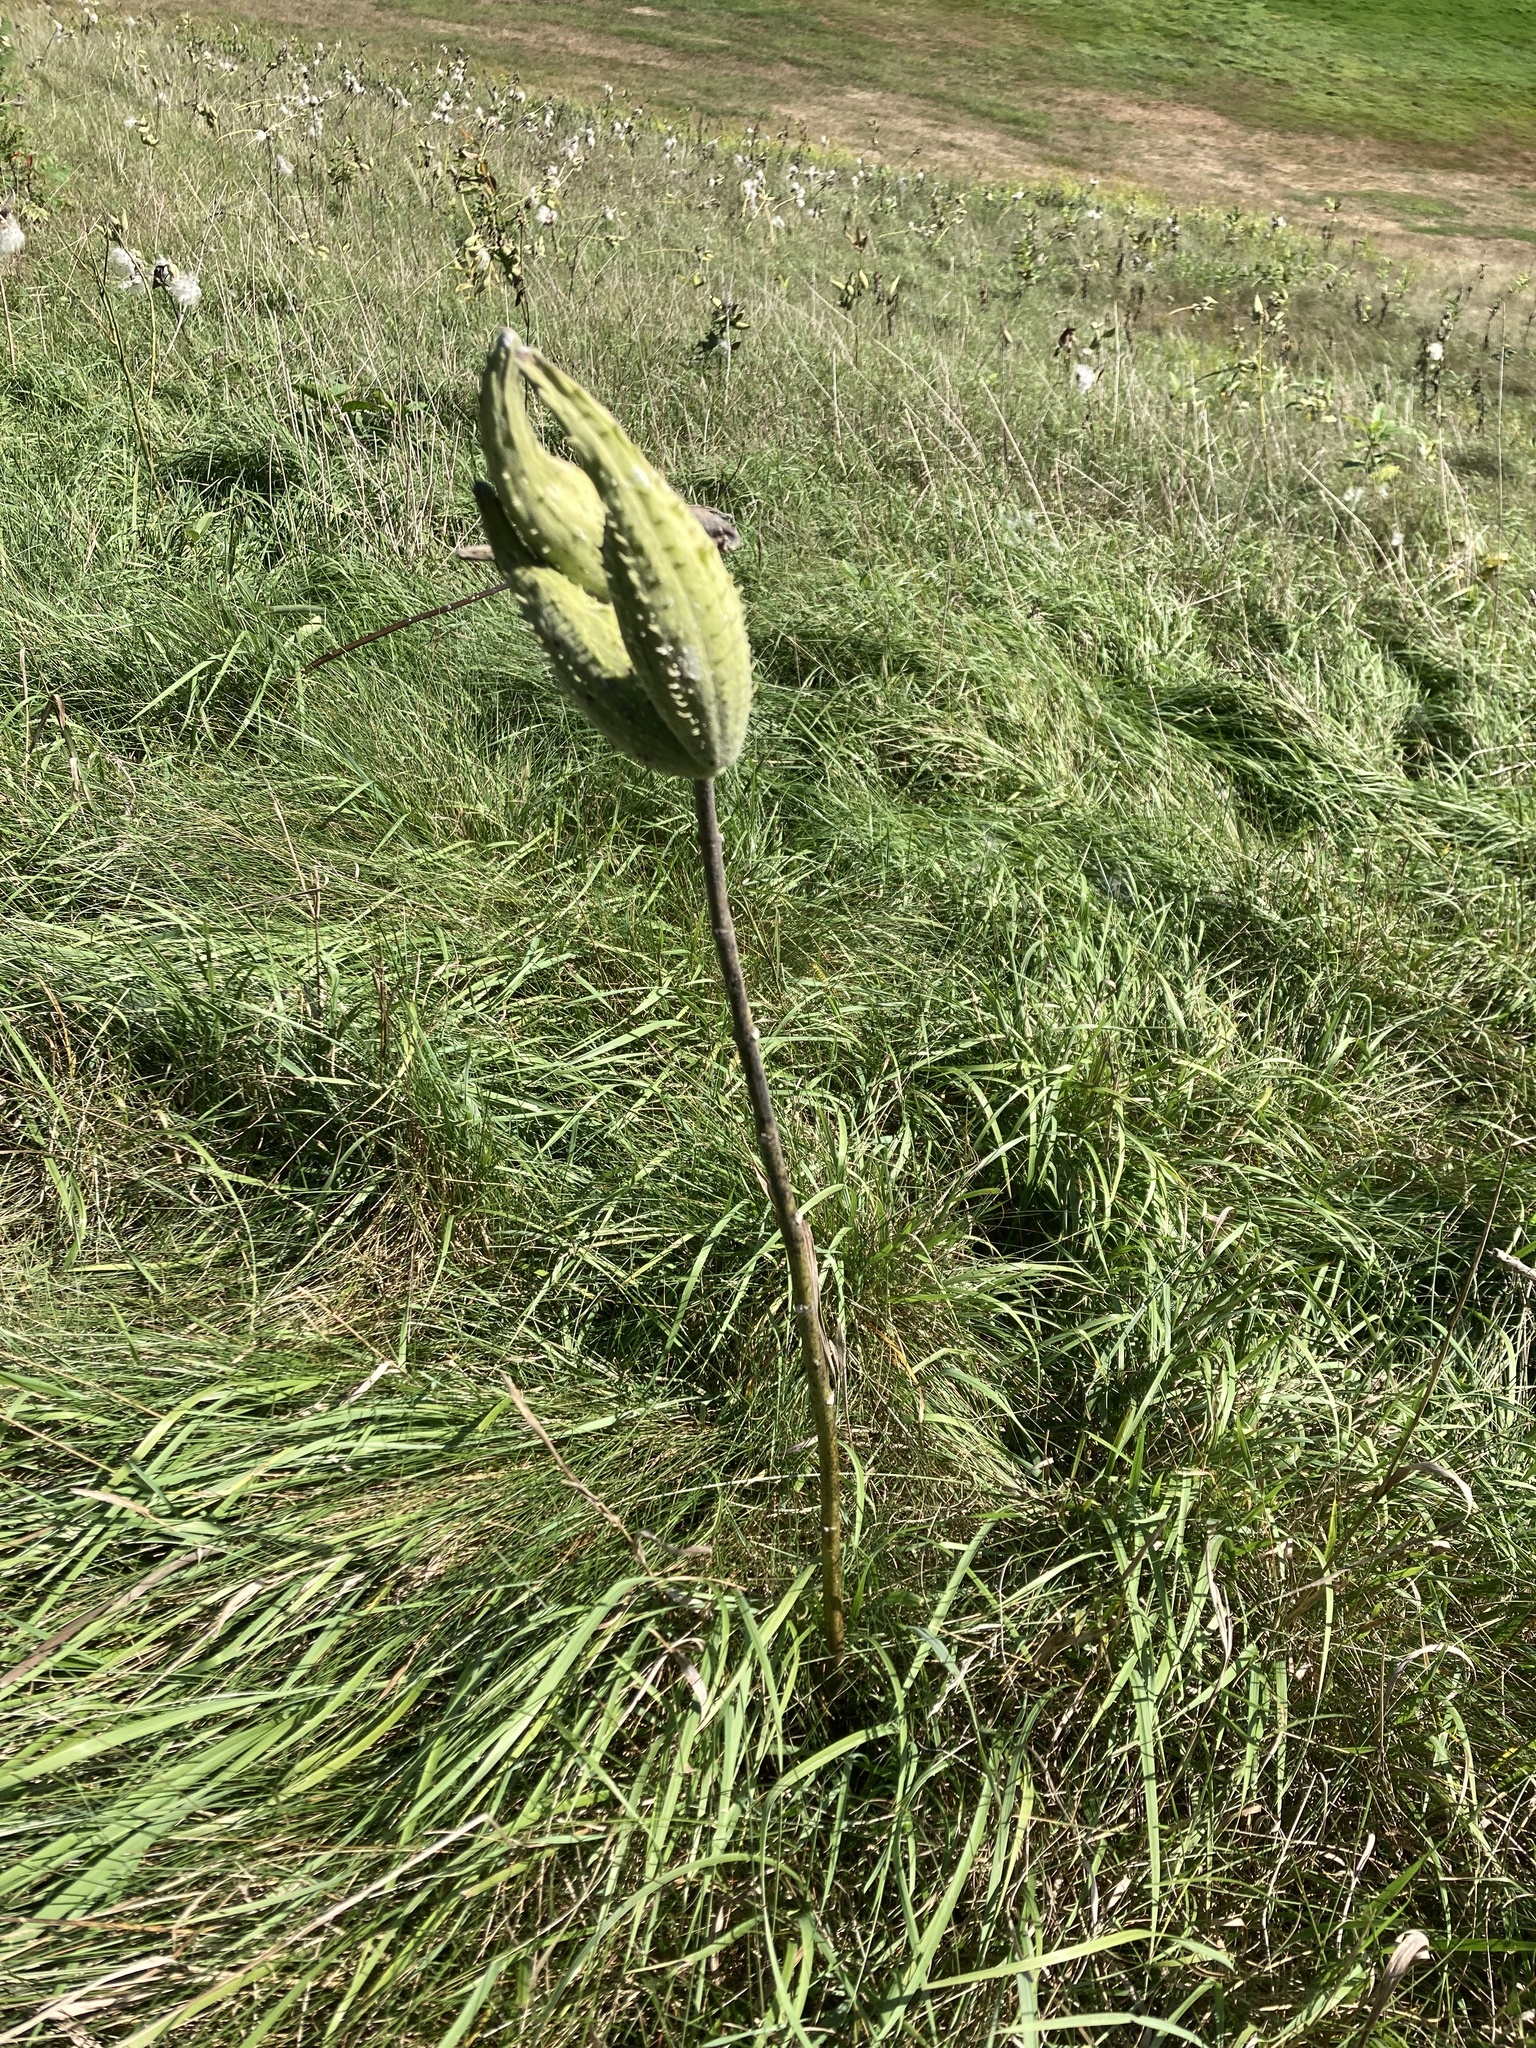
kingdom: Plantae
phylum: Tracheophyta
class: Magnoliopsida
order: Gentianales
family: Apocynaceae
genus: Asclepias
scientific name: Asclepias syriaca
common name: Common milkweed
